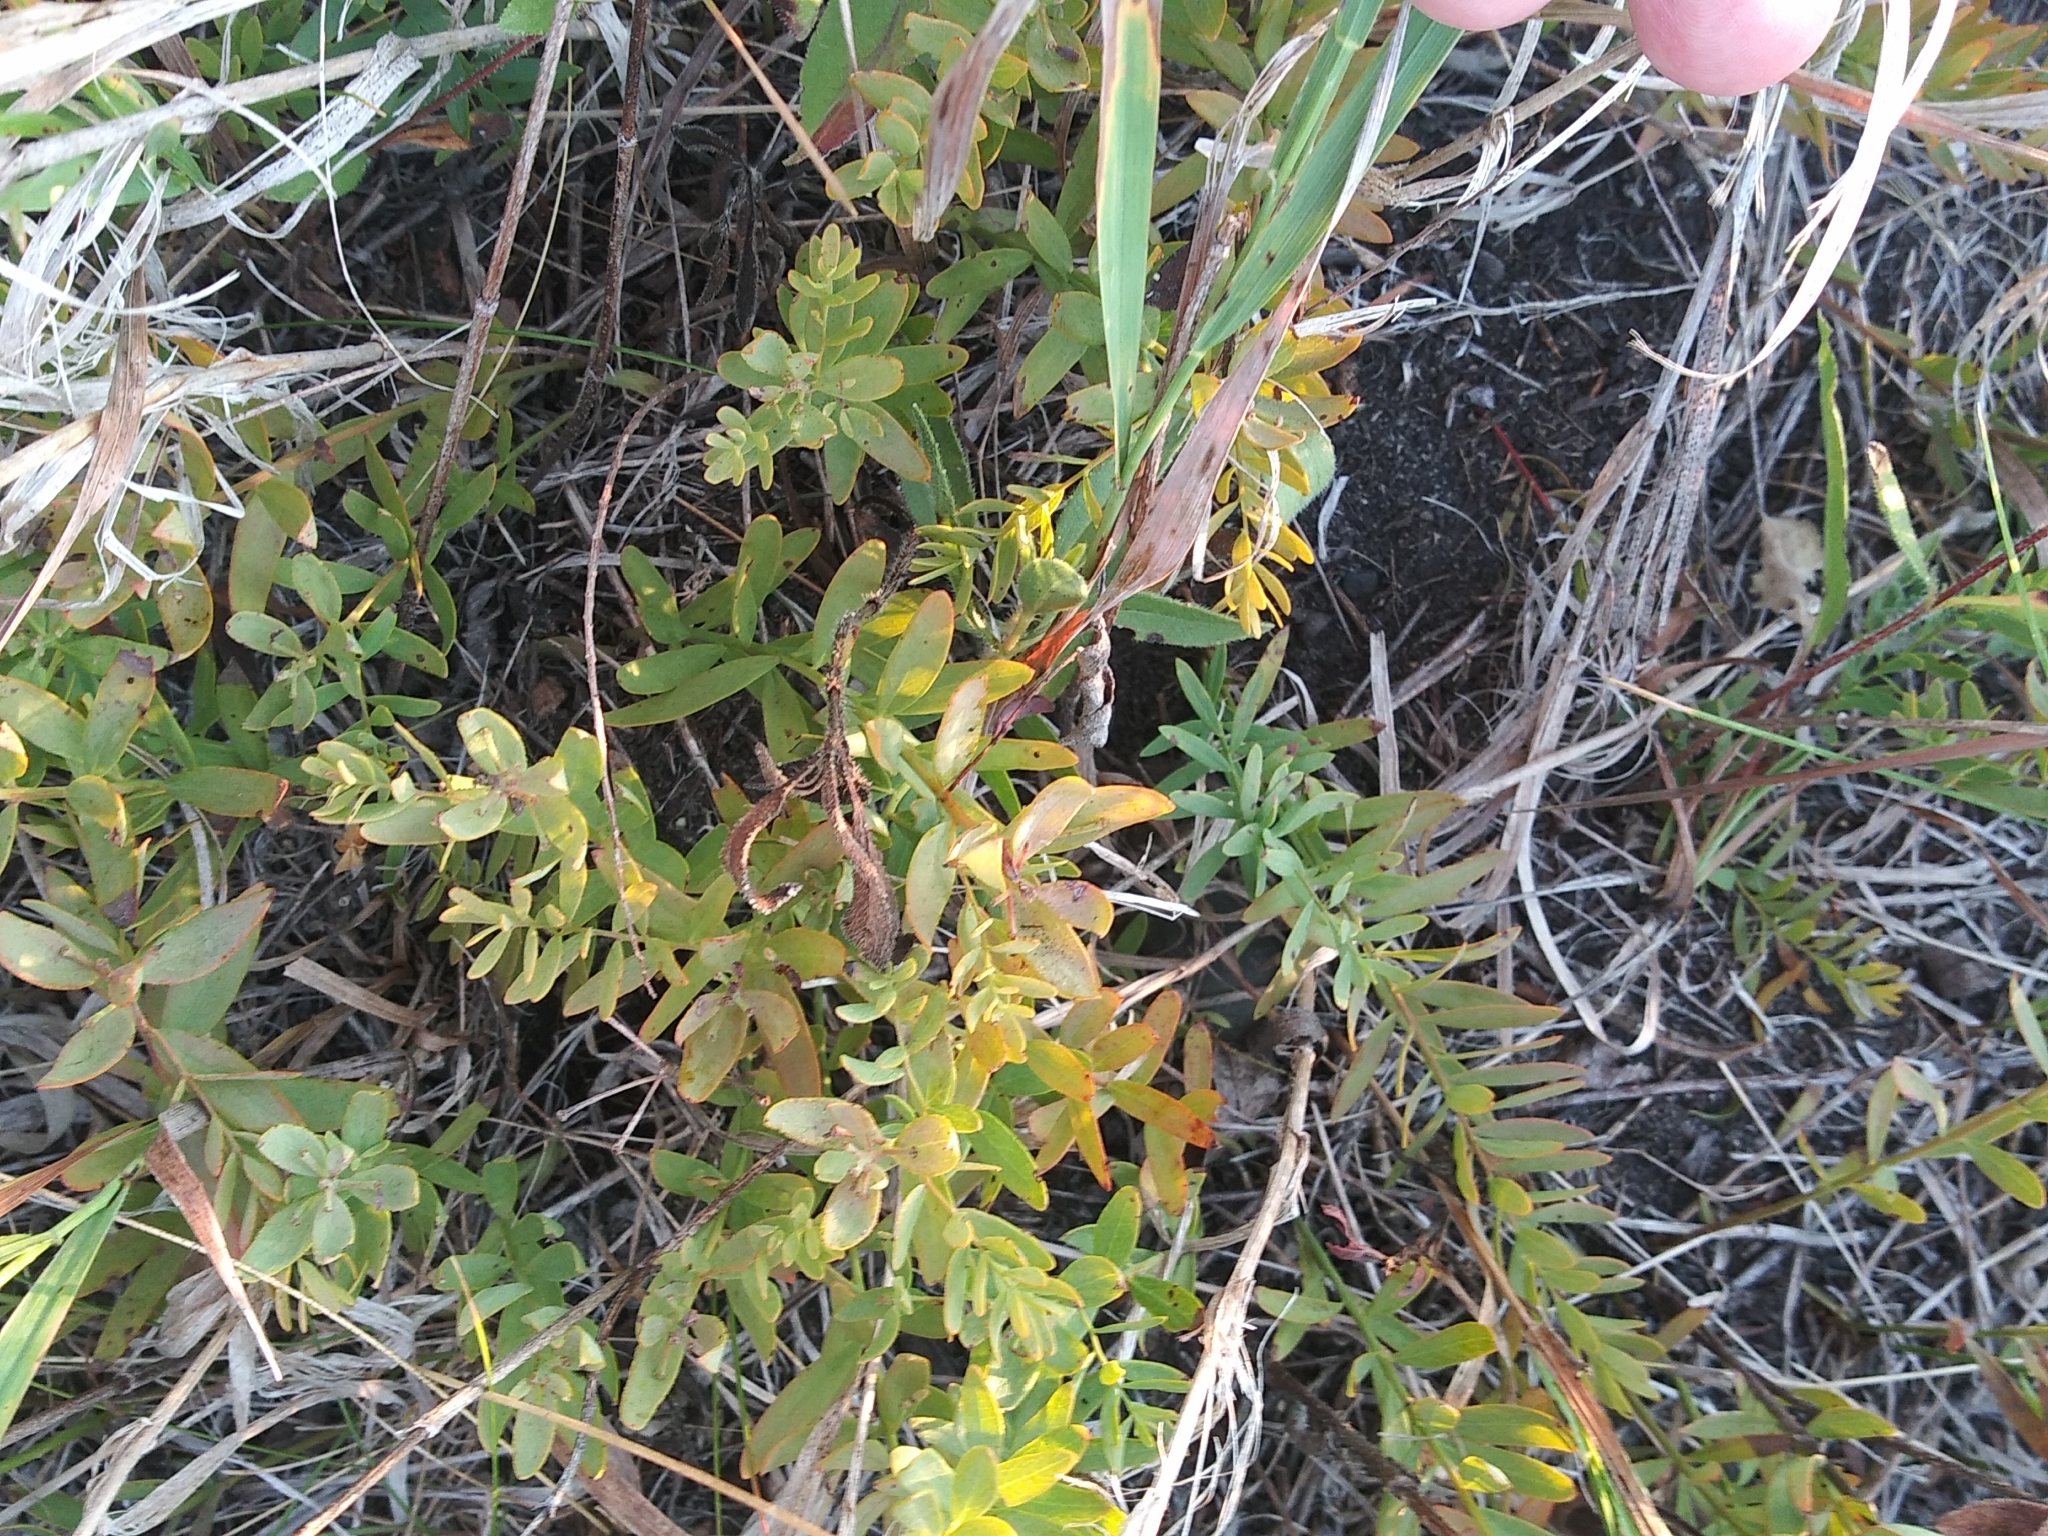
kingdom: Plantae
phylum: Tracheophyta
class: Magnoliopsida
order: Santalales
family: Comandraceae
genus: Comandra
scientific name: Comandra umbellata
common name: Bastard toadflax
